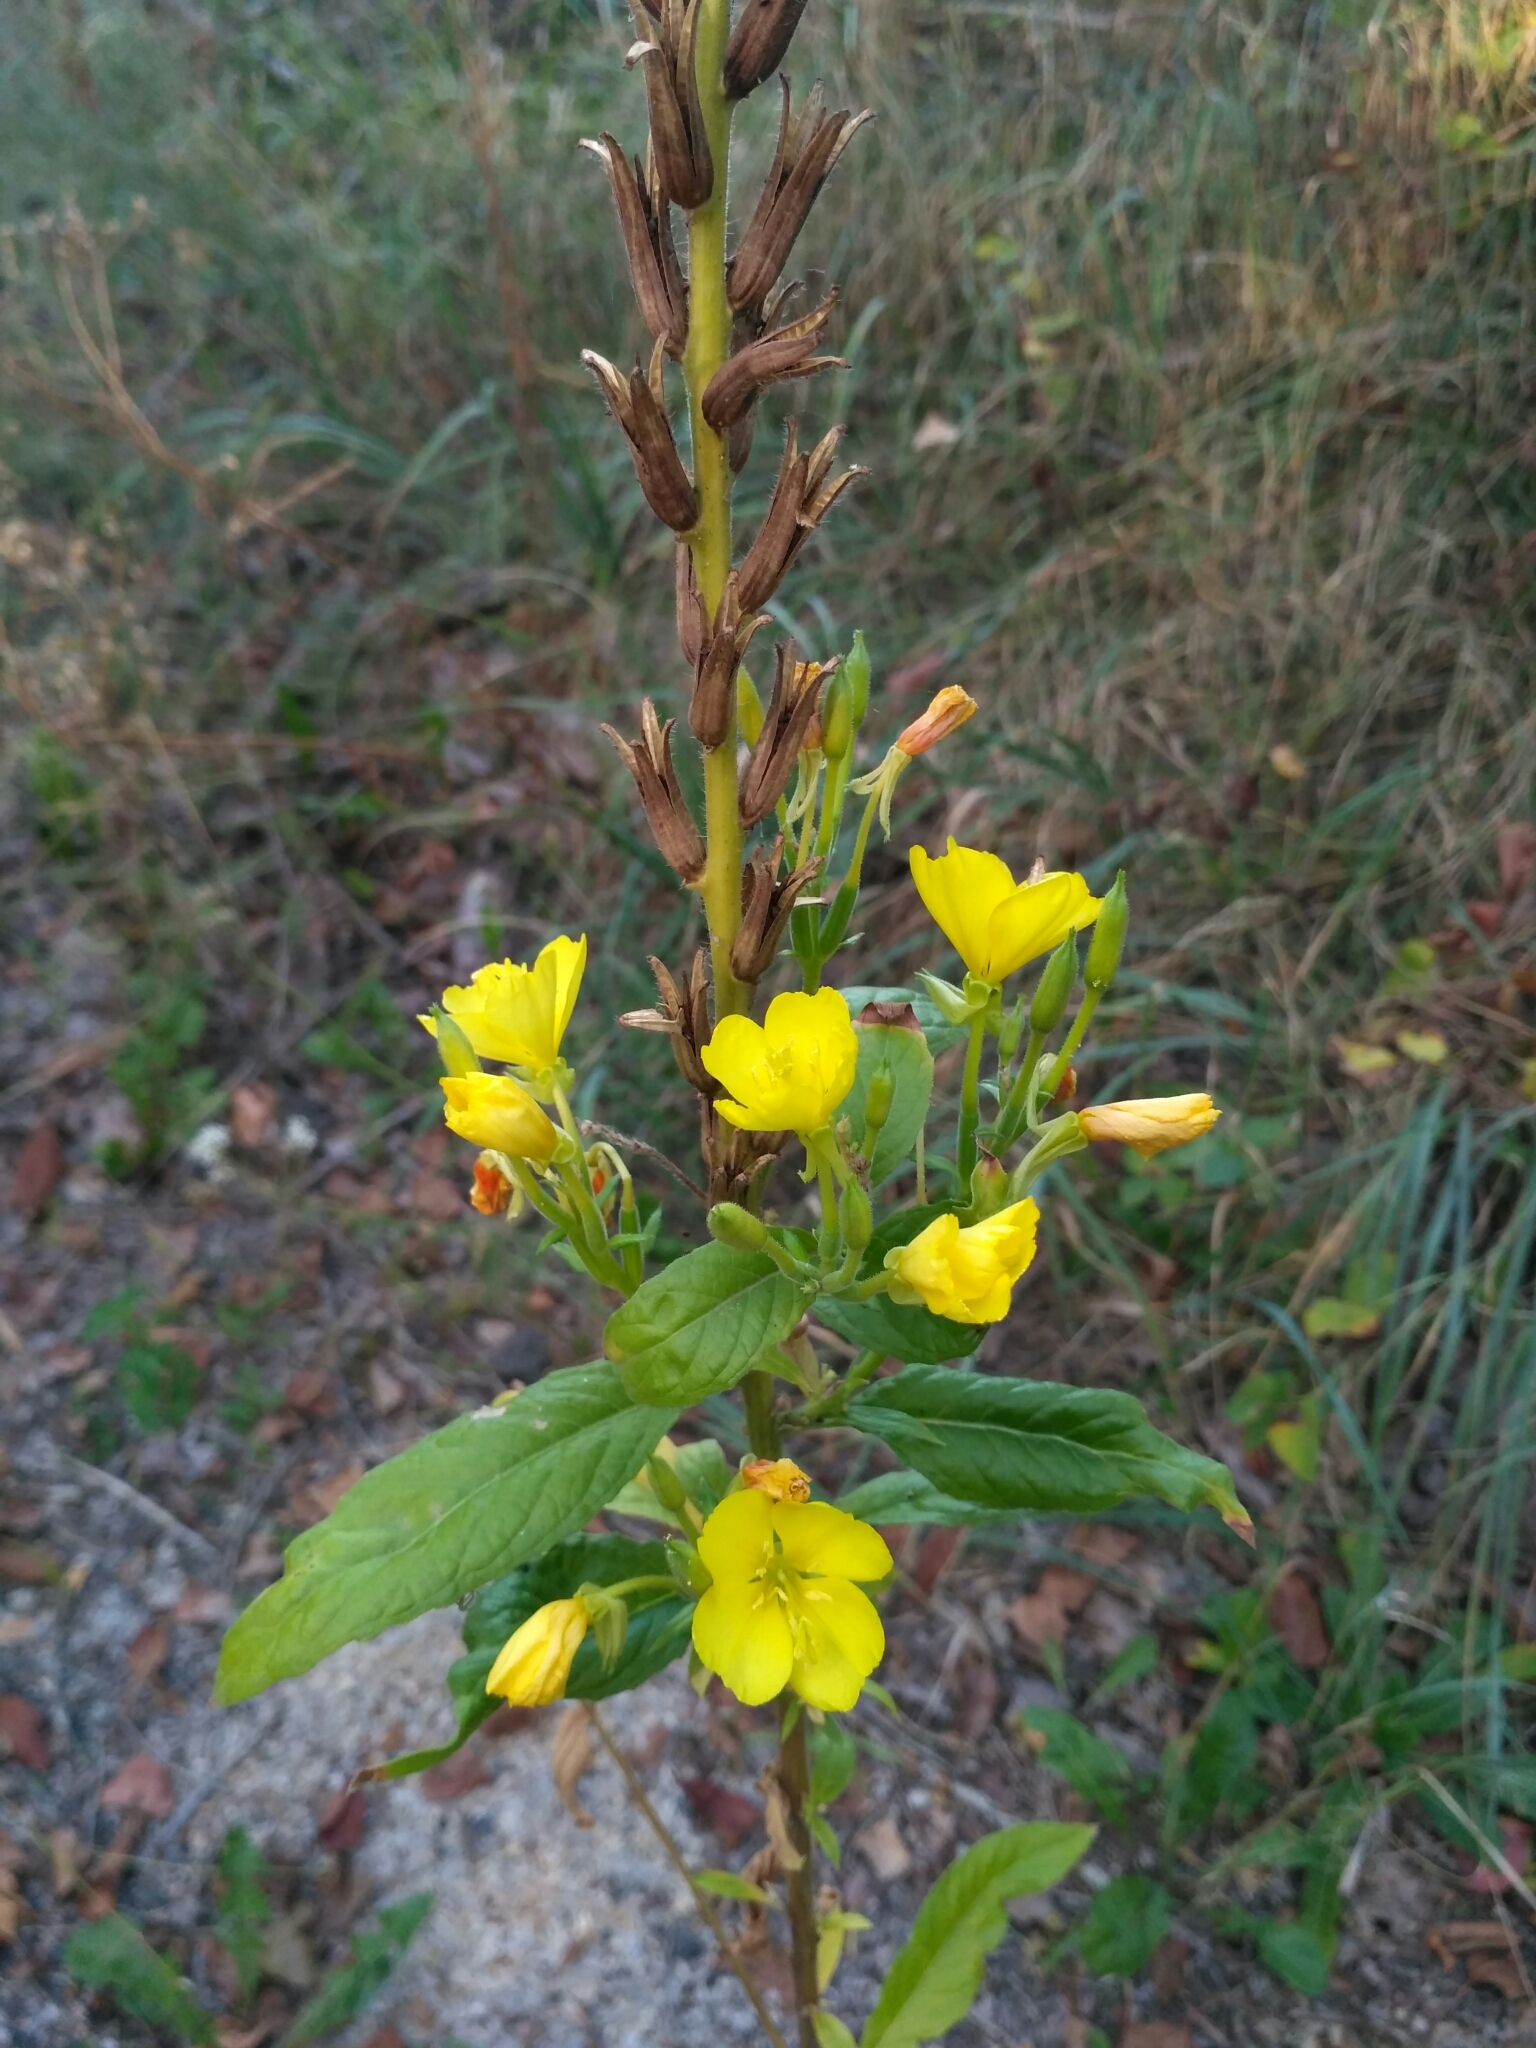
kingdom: Plantae
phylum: Tracheophyta
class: Magnoliopsida
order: Myrtales
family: Onagraceae
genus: Oenothera
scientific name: Oenothera biennis
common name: Common evening-primrose
